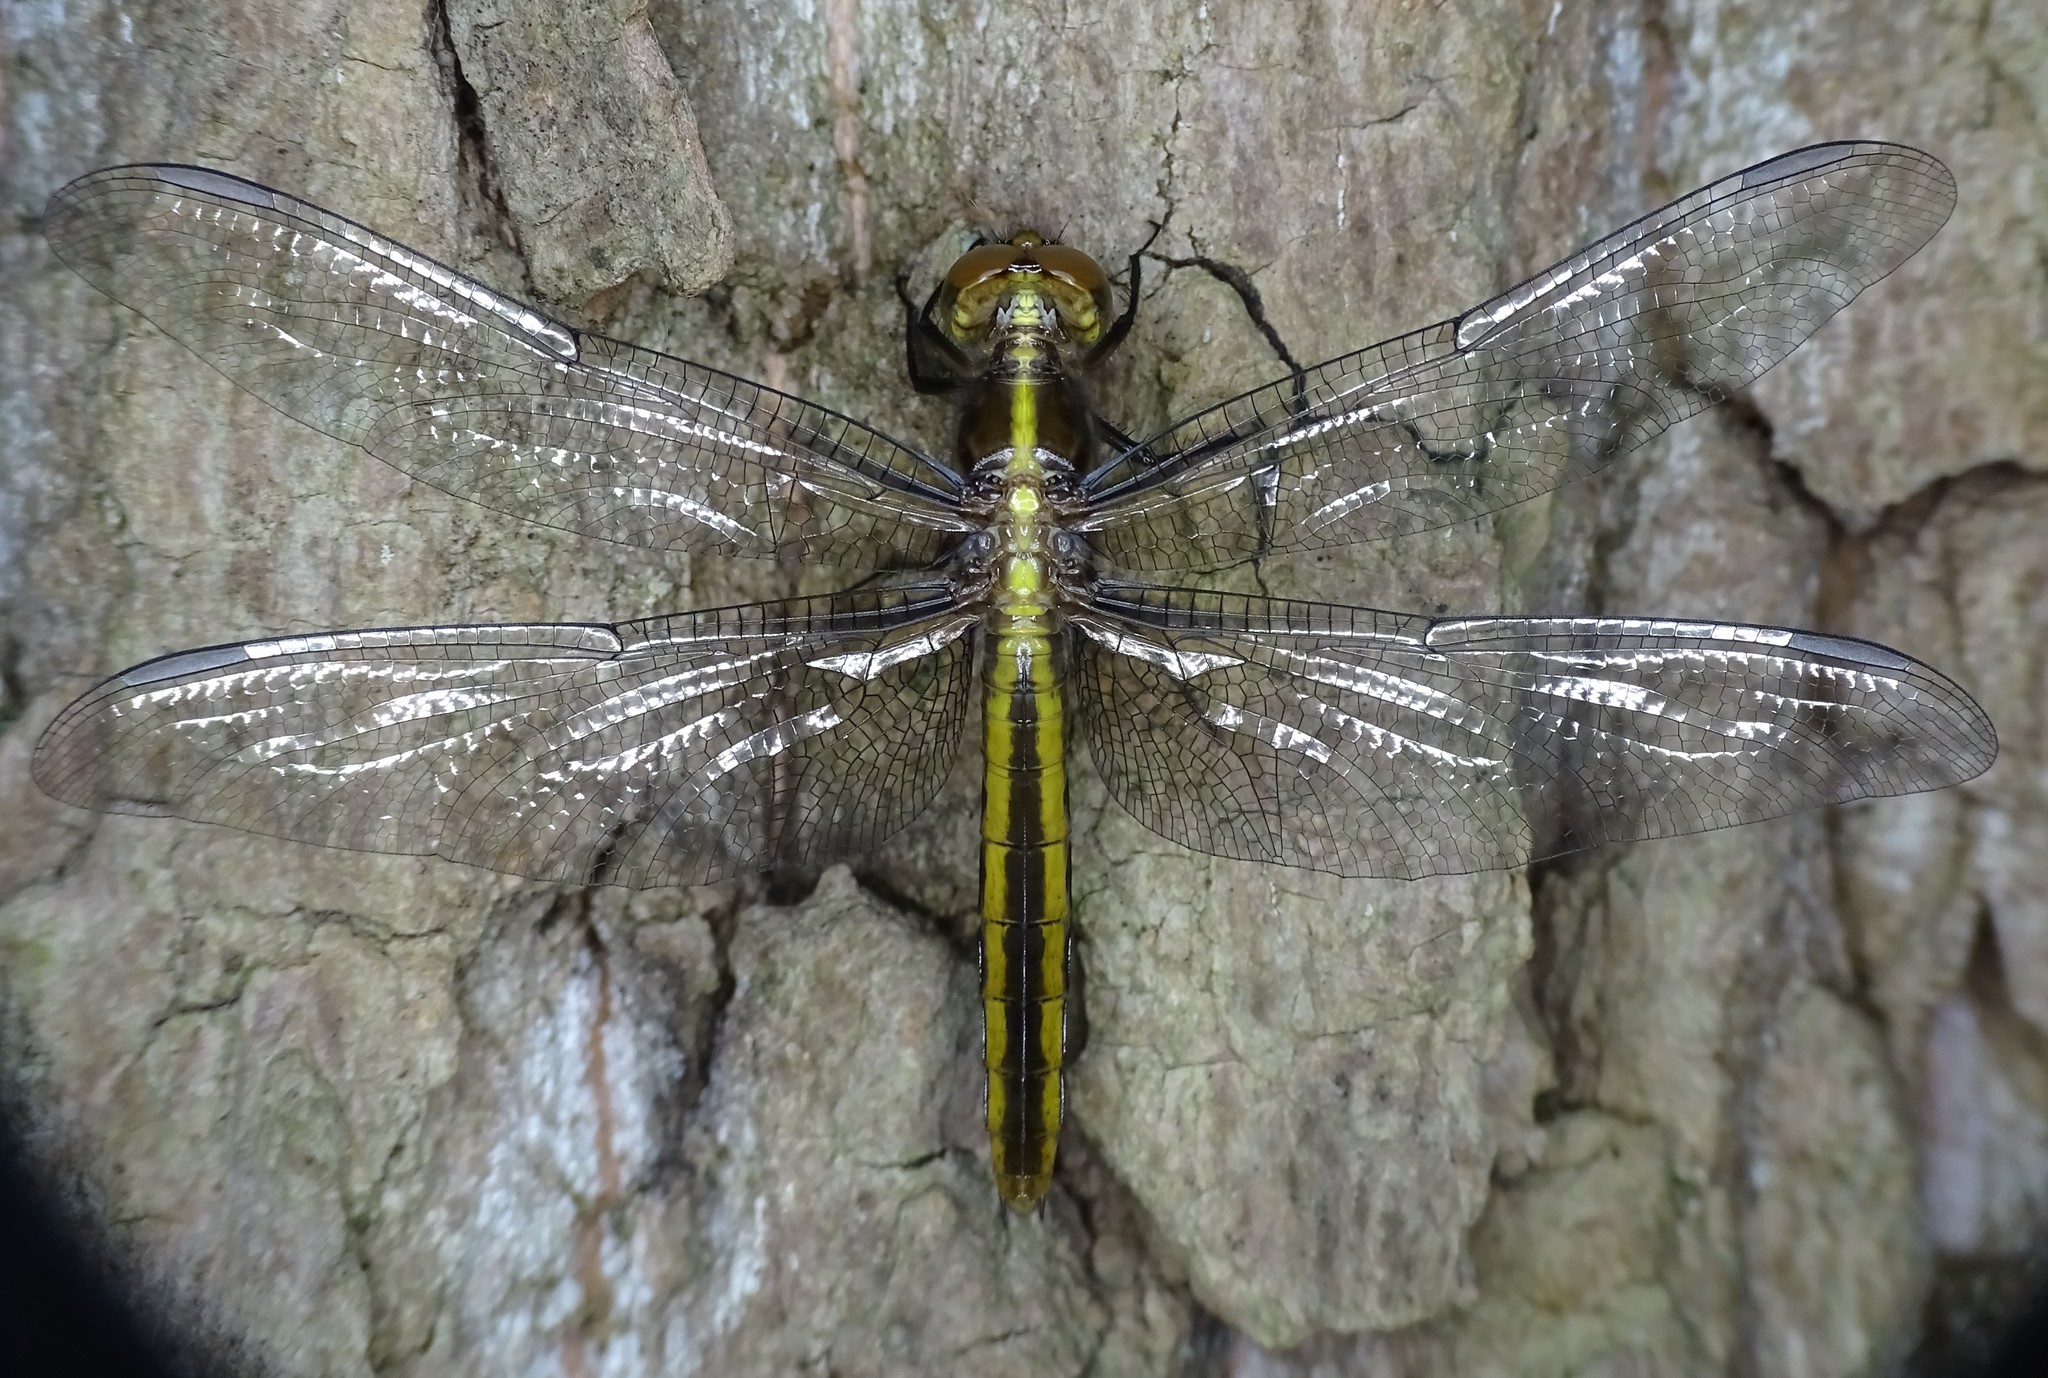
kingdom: Animalia
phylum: Arthropoda
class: Insecta
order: Odonata
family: Libellulidae
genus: Libellula
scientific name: Libellula luctuosa
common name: Widow skimmer
